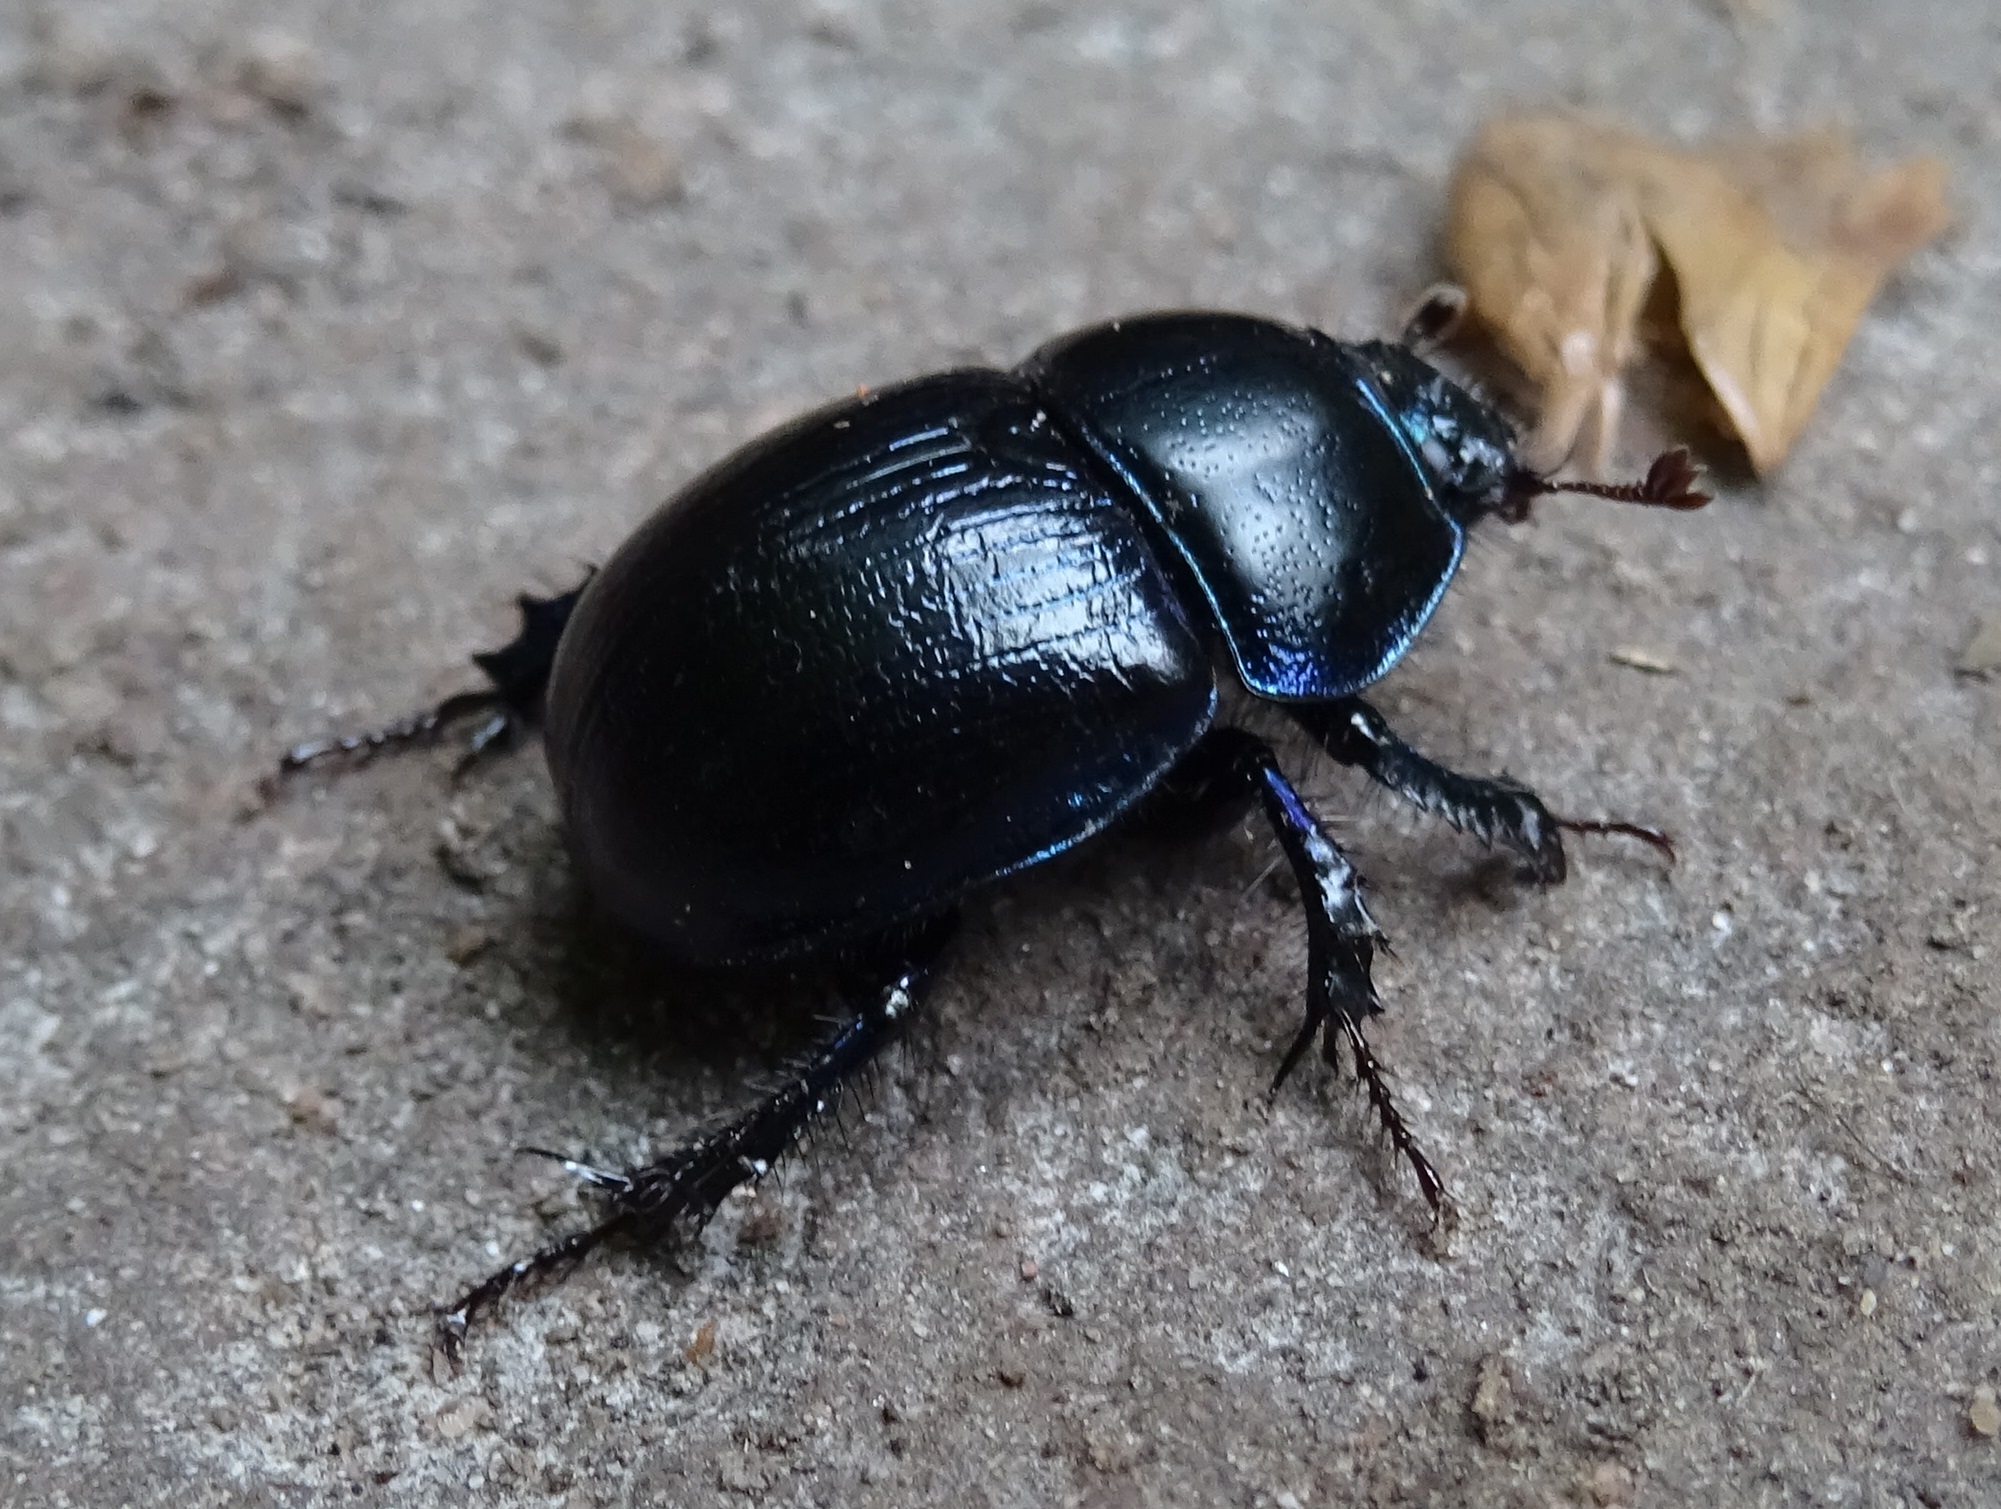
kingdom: Animalia
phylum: Arthropoda
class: Insecta
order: Coleoptera
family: Geotrupidae
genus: Anoplotrupes
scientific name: Anoplotrupes stercorosus
